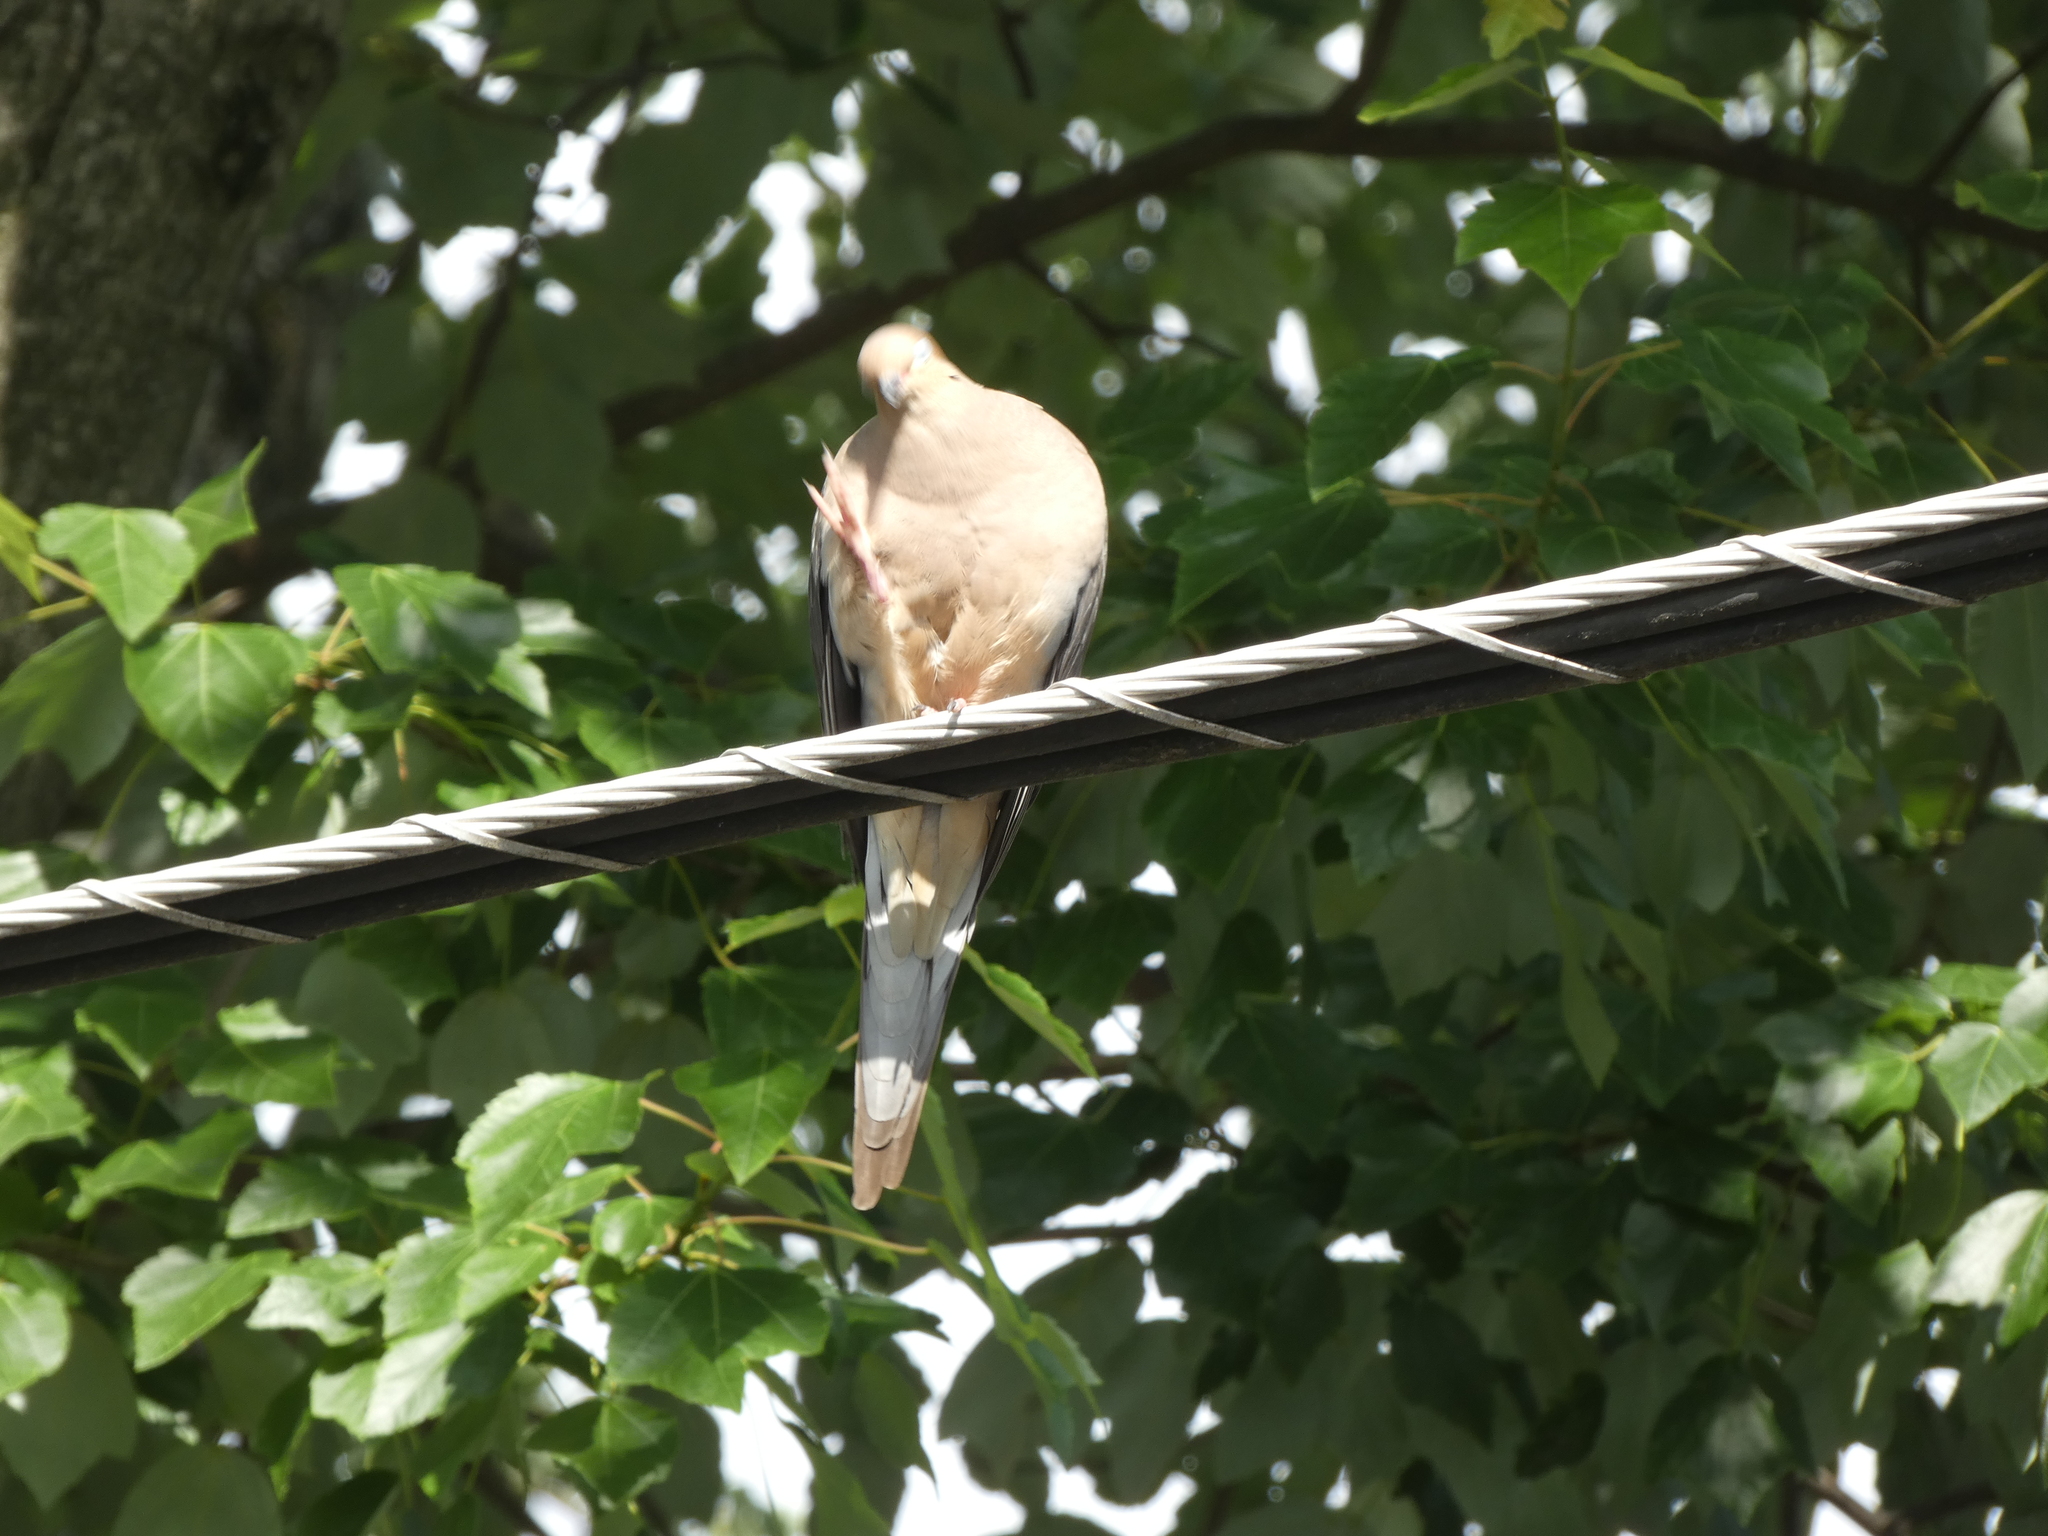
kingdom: Animalia
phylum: Chordata
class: Aves
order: Columbiformes
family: Columbidae
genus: Zenaida
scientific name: Zenaida macroura
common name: Mourning dove
